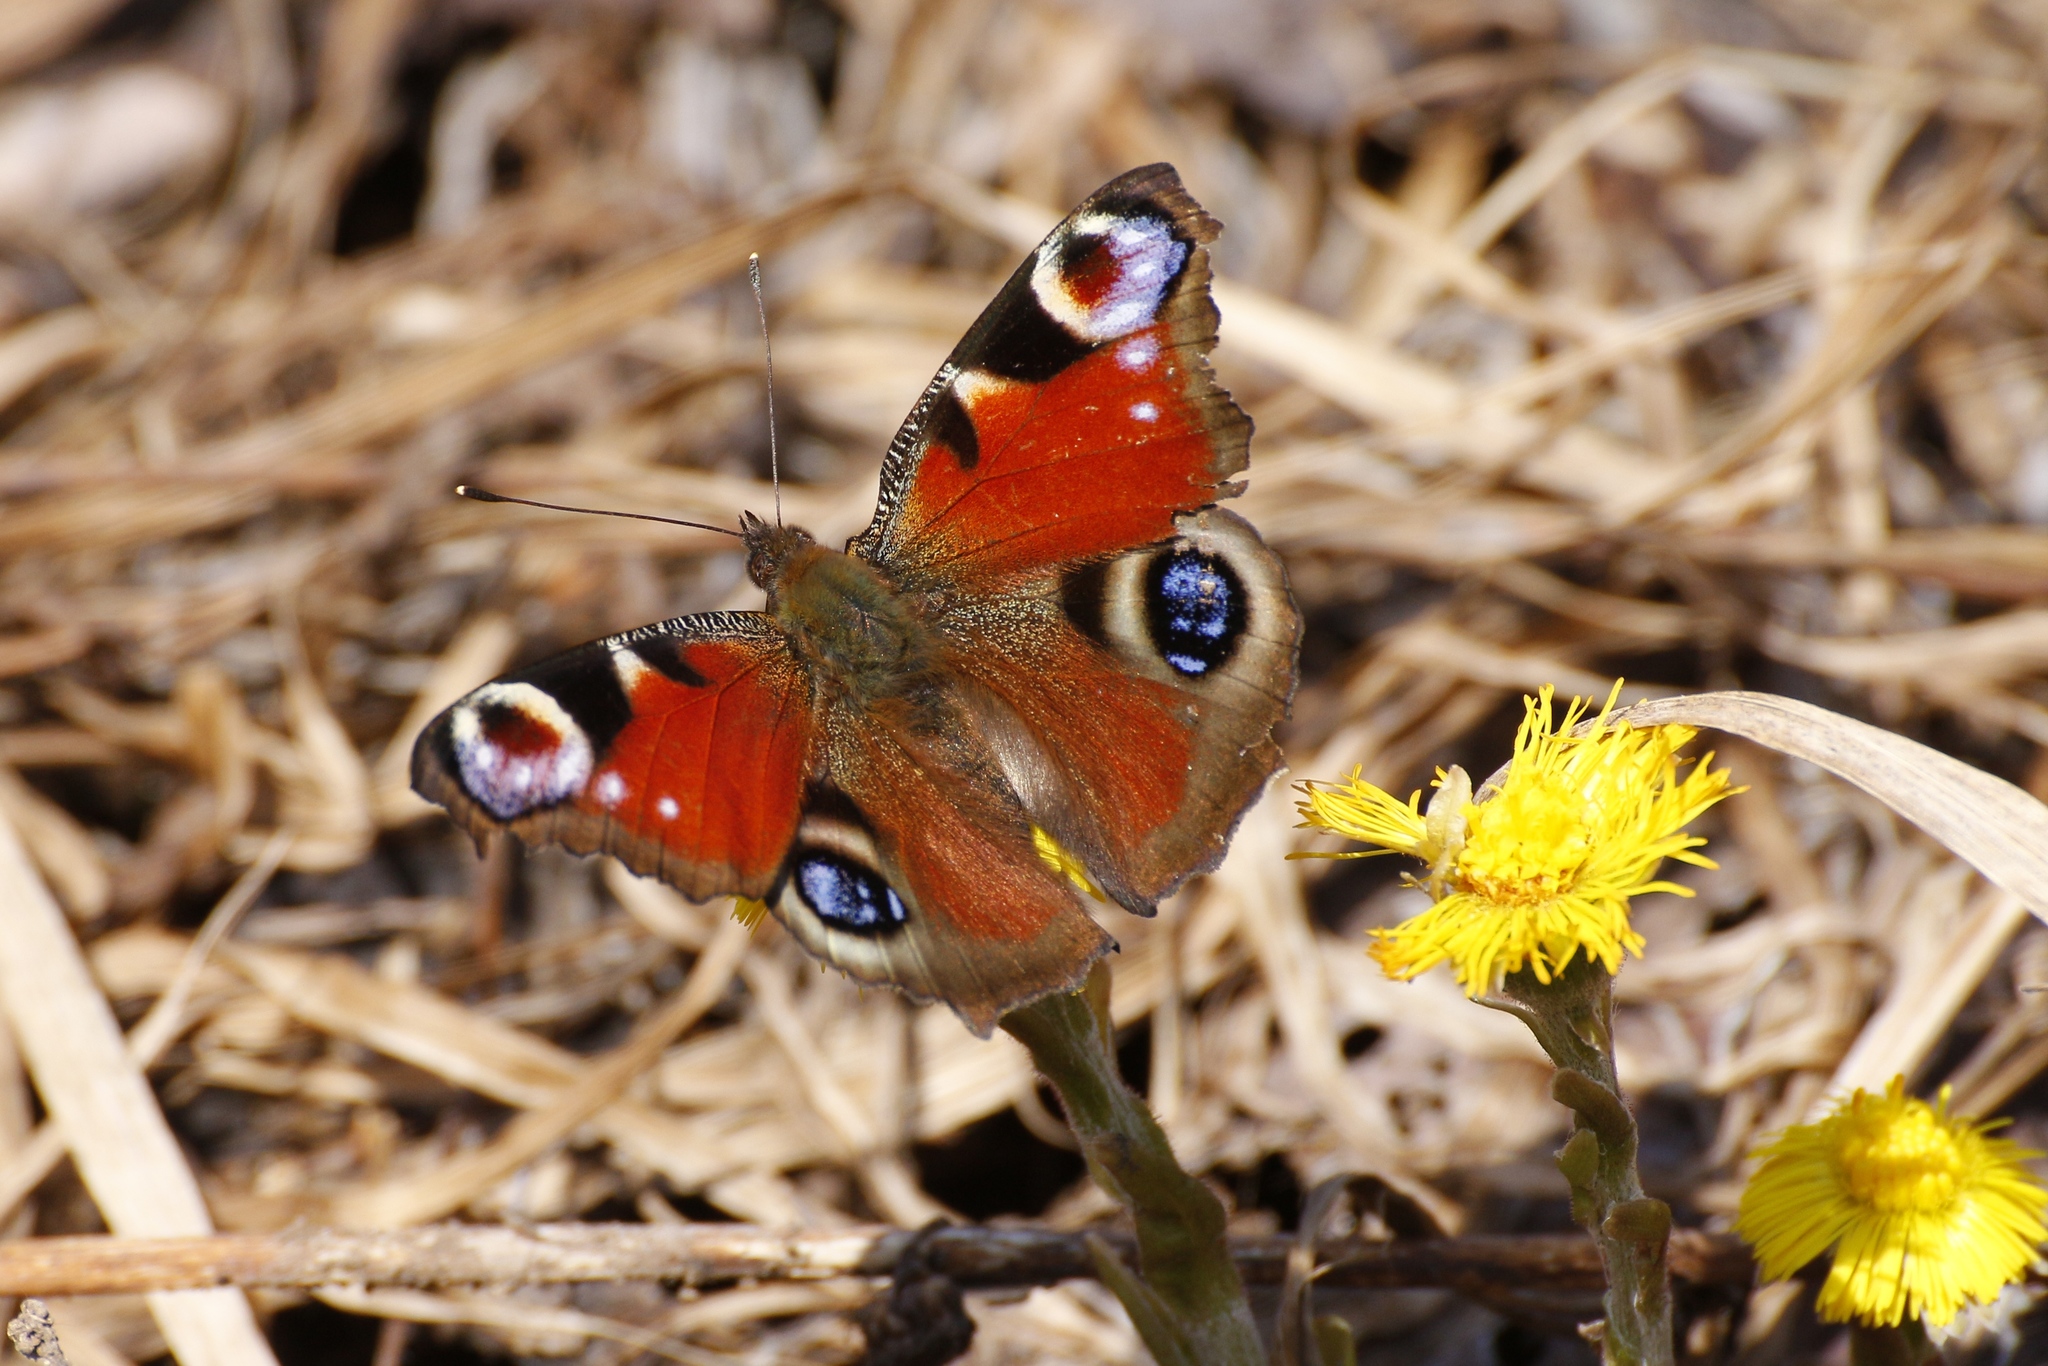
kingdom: Animalia
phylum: Arthropoda
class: Insecta
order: Lepidoptera
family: Nymphalidae
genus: Aglais
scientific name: Aglais io
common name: Peacock
